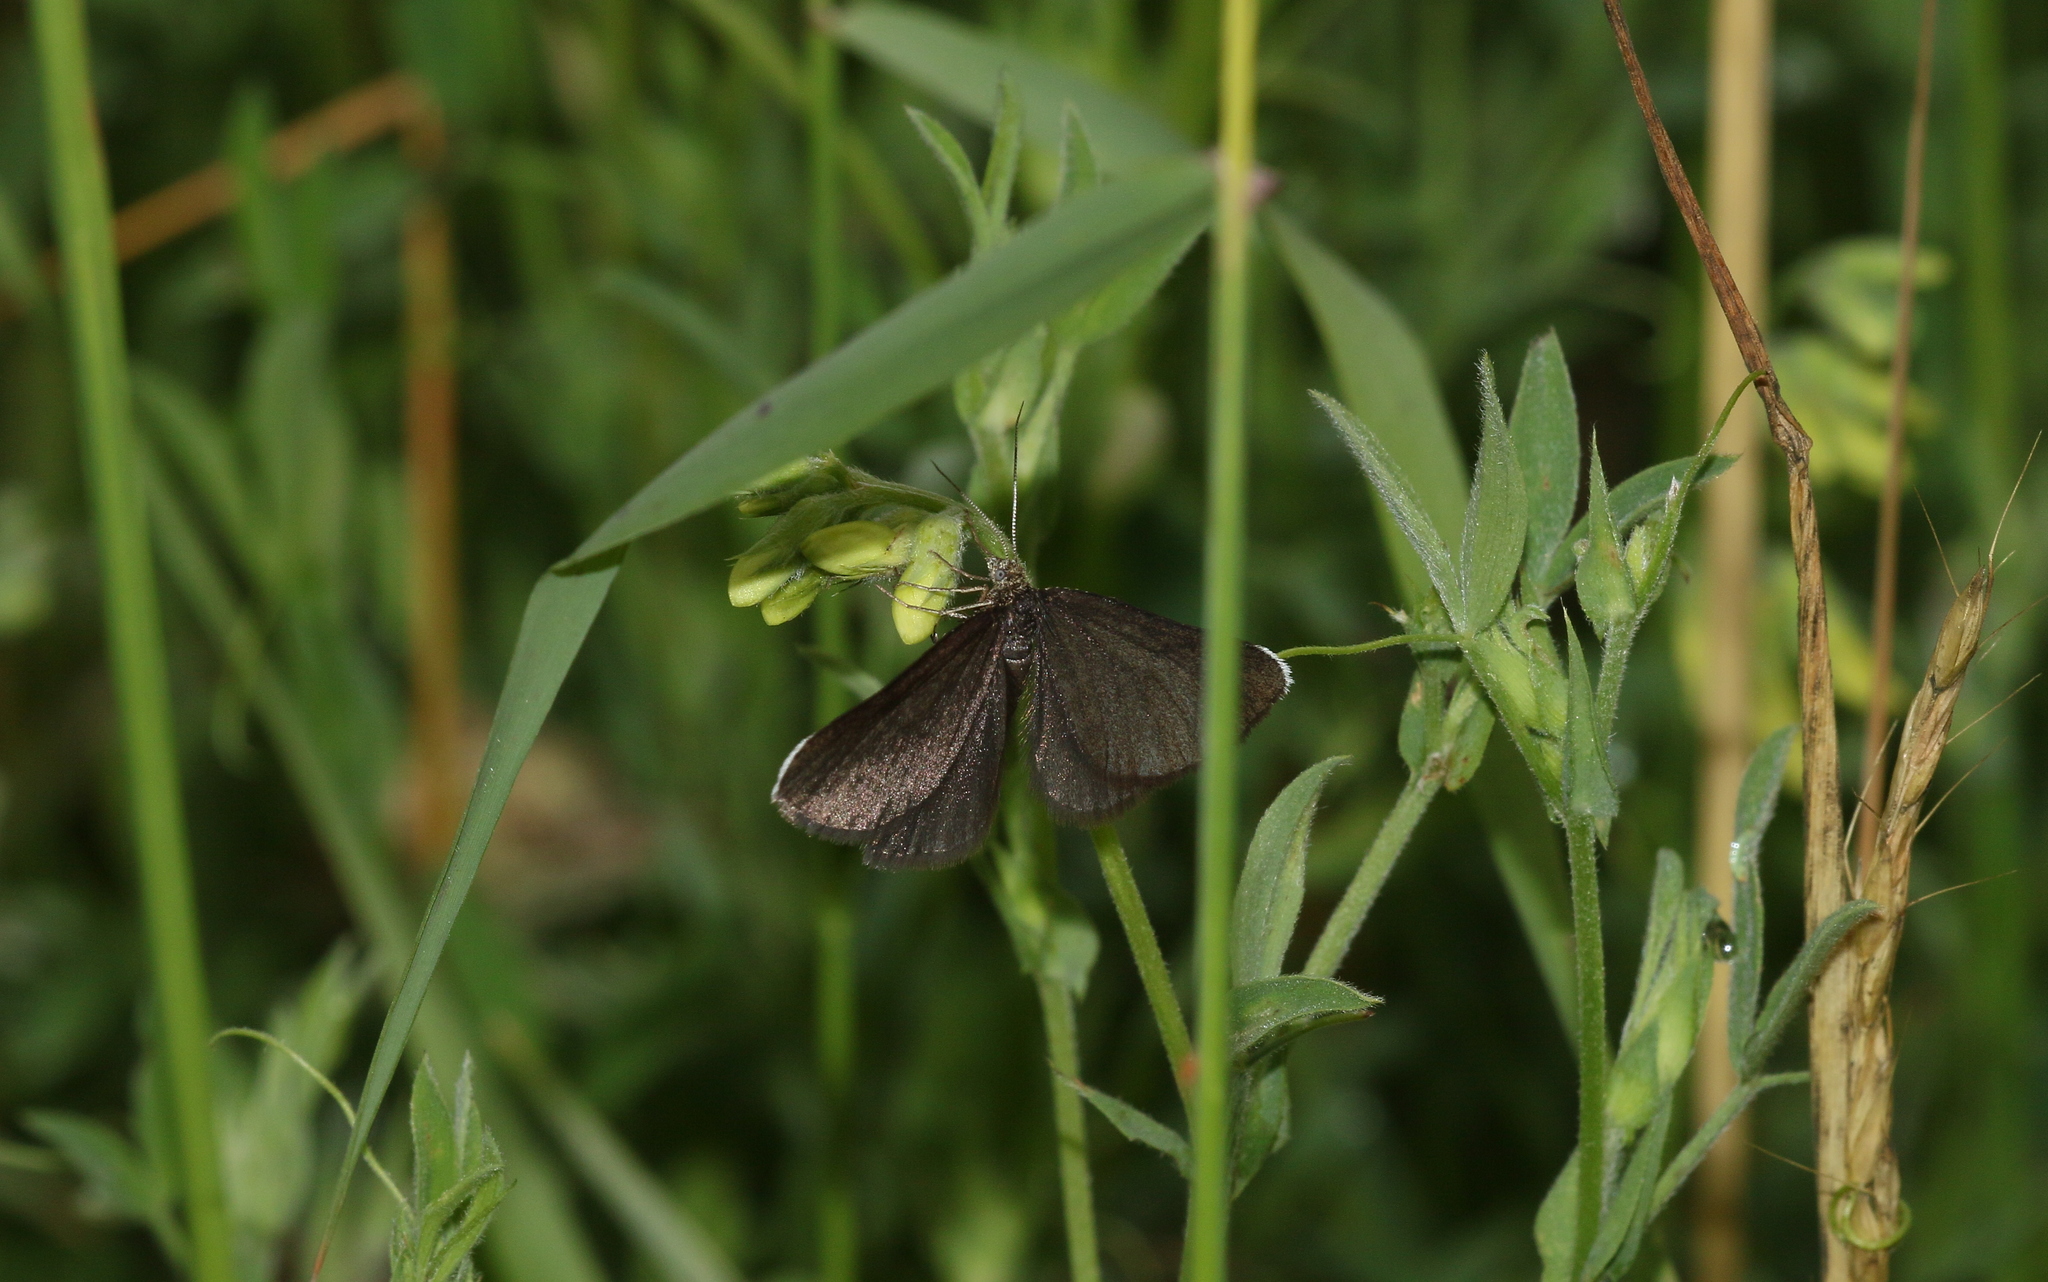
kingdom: Animalia
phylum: Arthropoda
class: Insecta
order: Lepidoptera
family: Geometridae
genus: Odezia
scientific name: Odezia atrata
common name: Chimney sweeper
